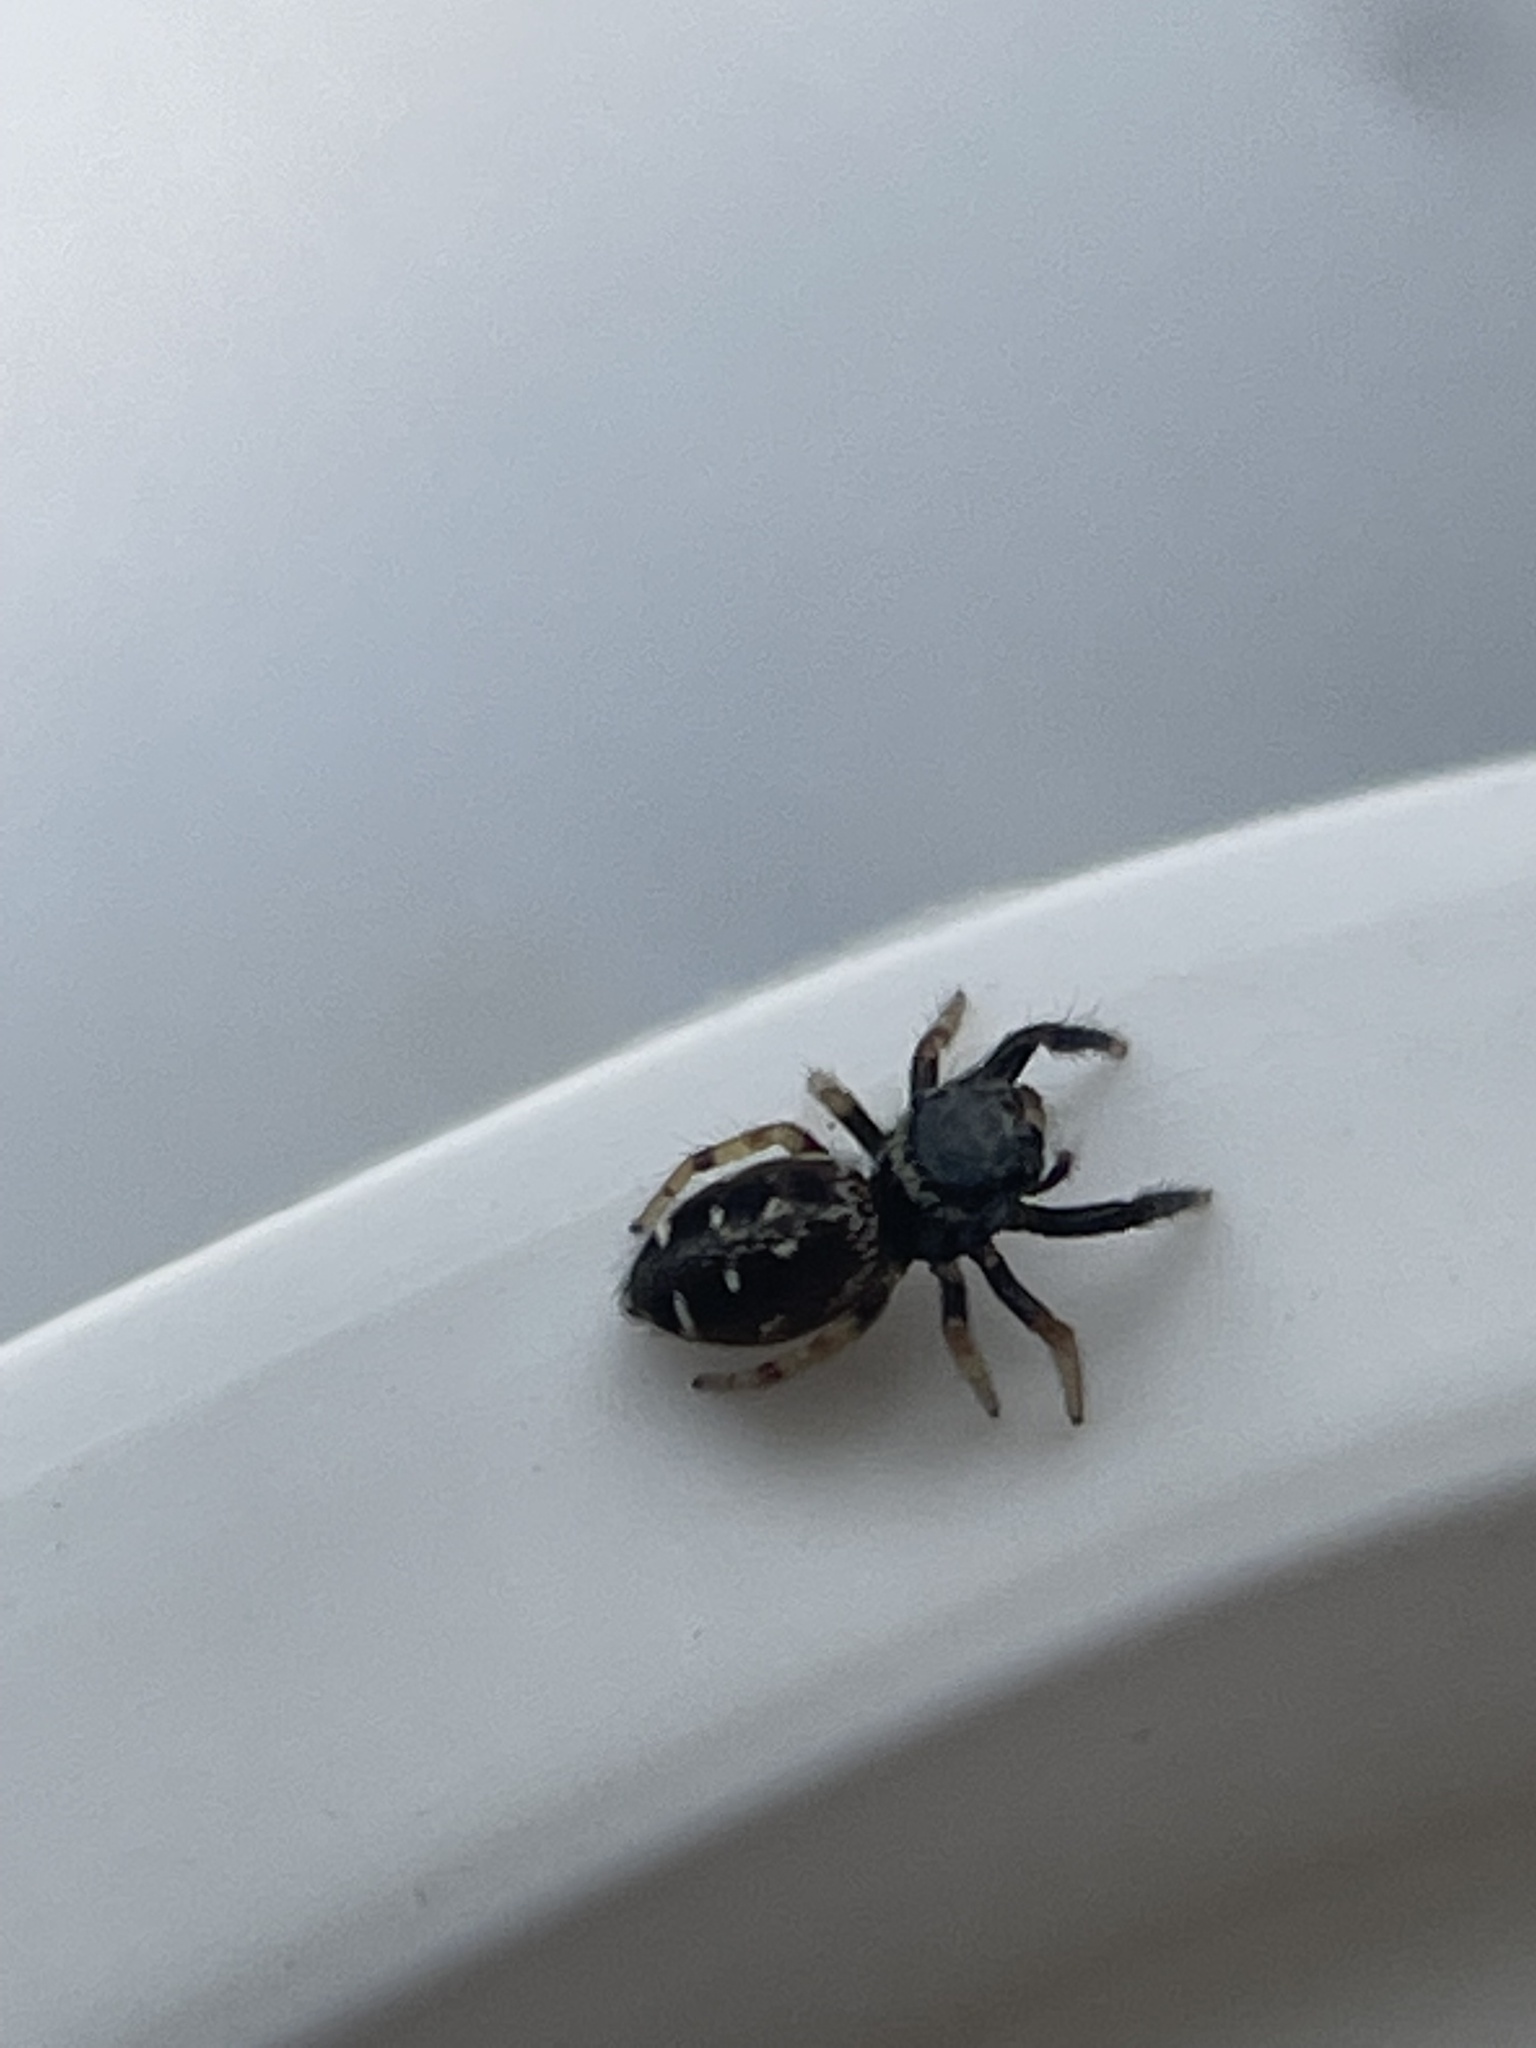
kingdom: Animalia
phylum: Arthropoda
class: Arachnida
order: Araneae
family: Salticidae
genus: Paraphidippus
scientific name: Paraphidippus aurantius
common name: Jumping spiders
